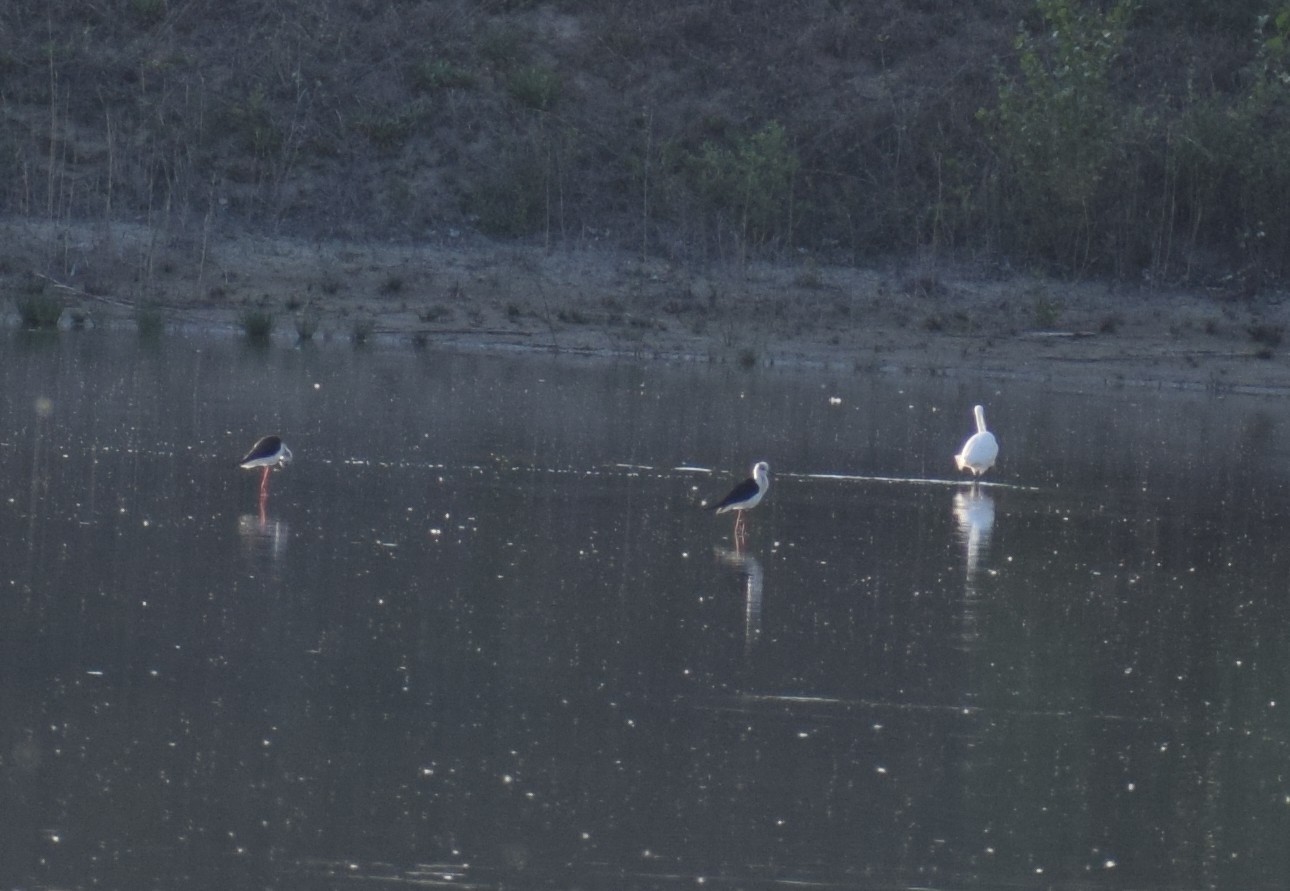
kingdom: Animalia
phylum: Chordata
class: Aves
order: Charadriiformes
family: Recurvirostridae
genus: Himantopus
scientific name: Himantopus himantopus
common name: Black-winged stilt
